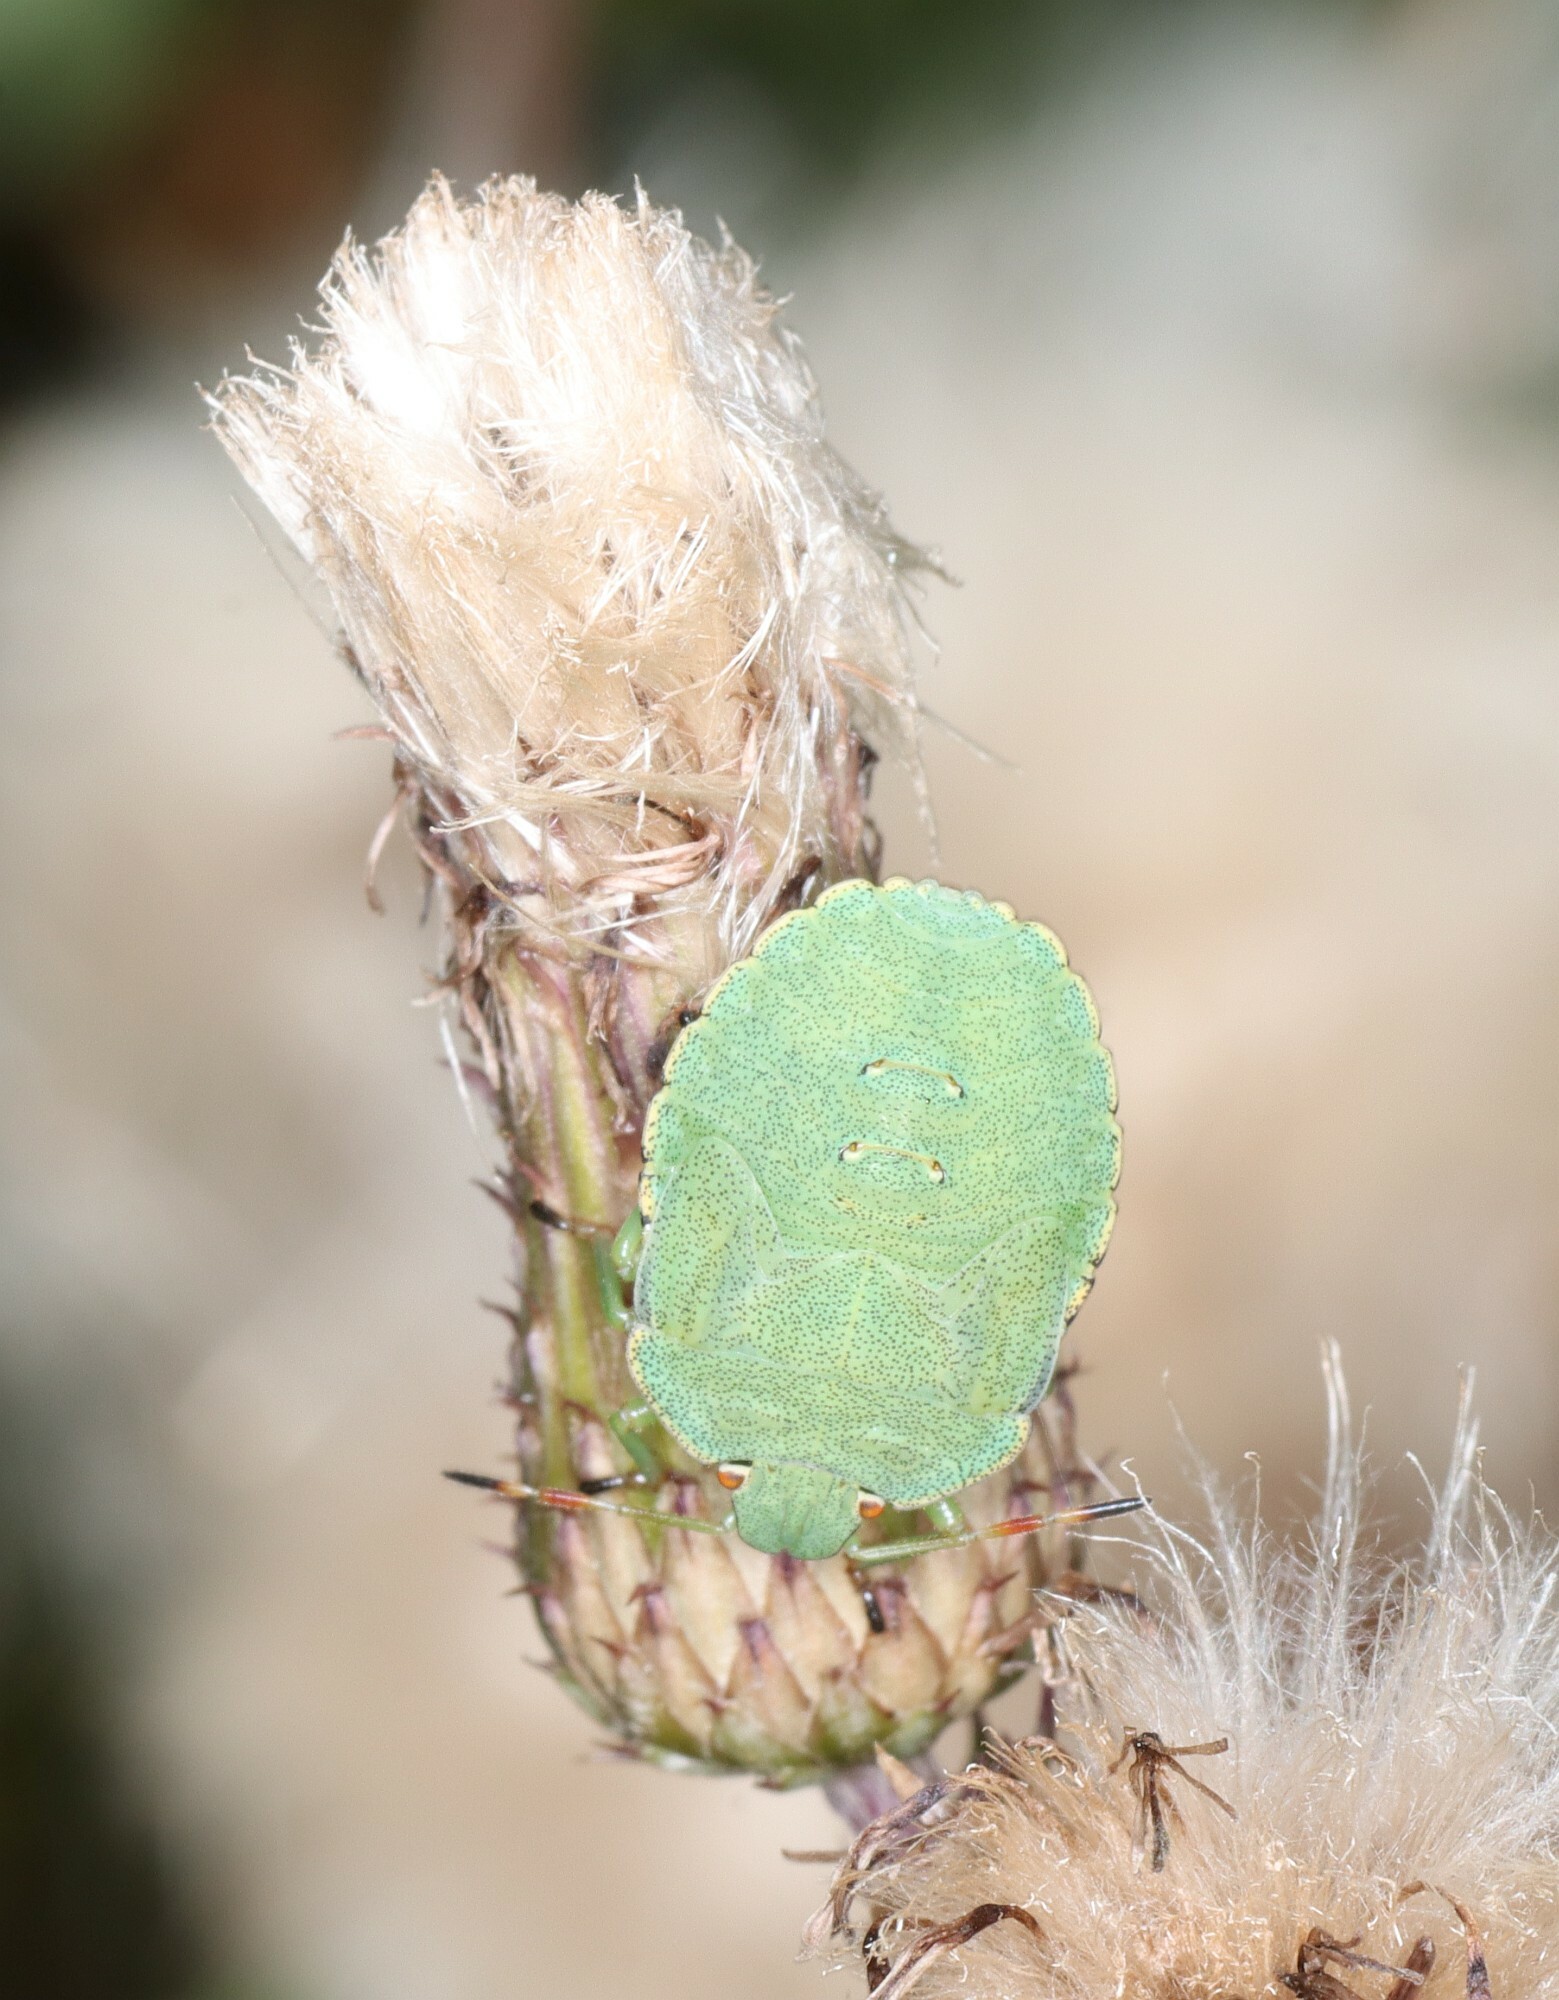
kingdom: Animalia
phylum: Arthropoda
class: Insecta
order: Hemiptera
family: Pentatomidae
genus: Palomena
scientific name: Palomena prasina
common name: Green shieldbug
